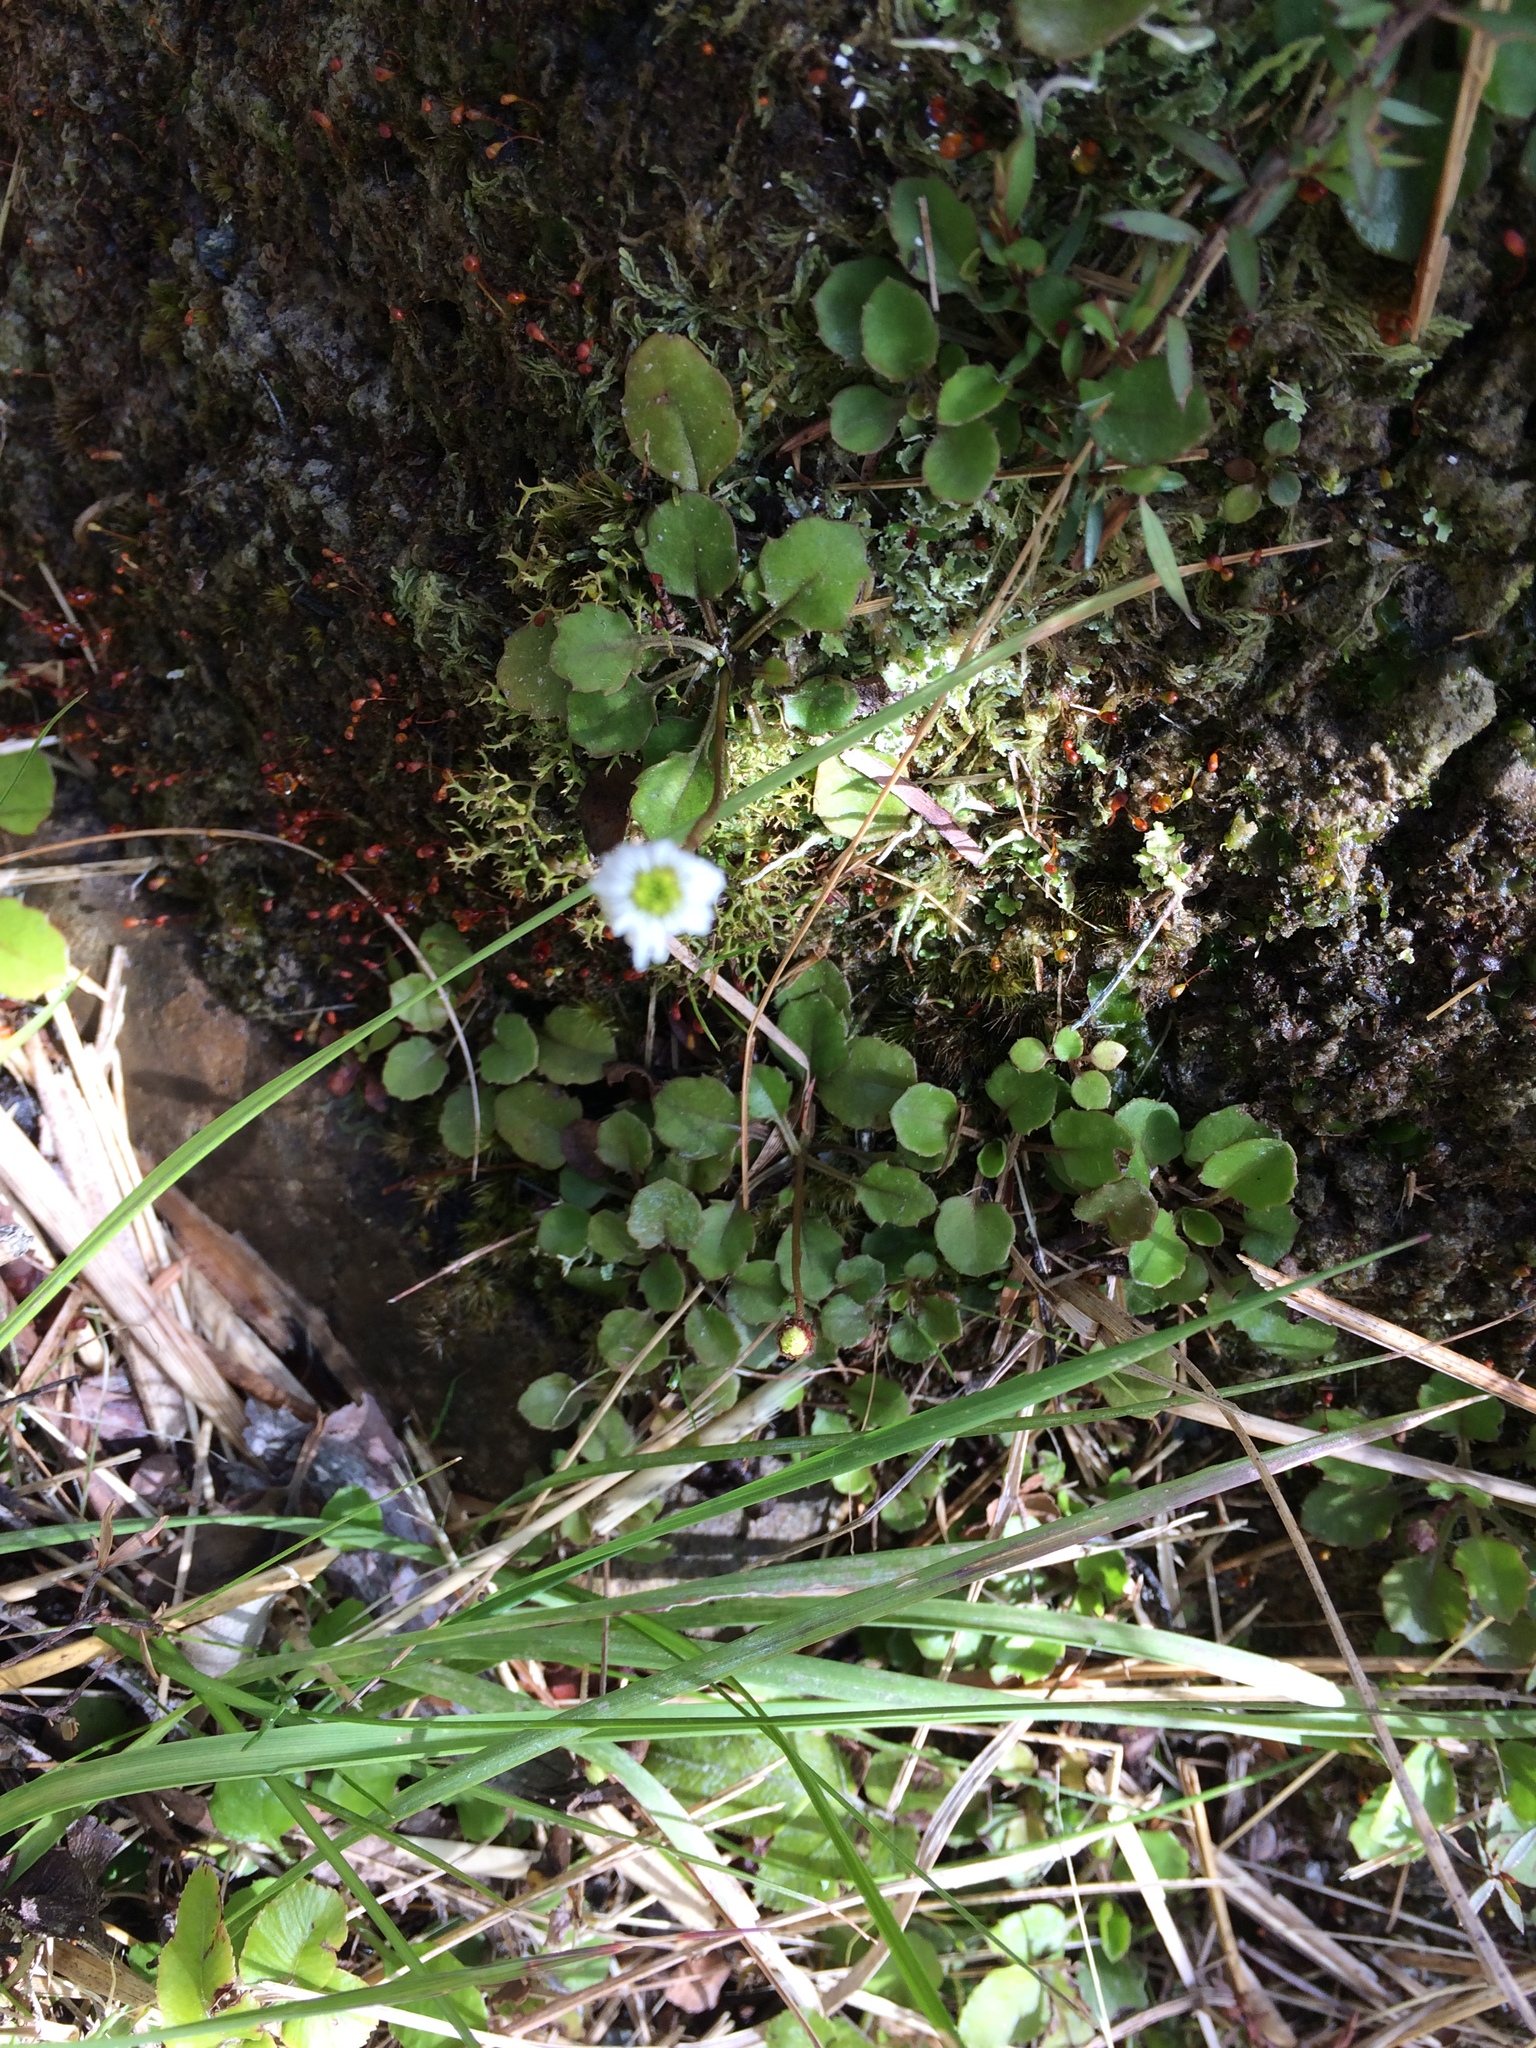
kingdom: Plantae
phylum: Tracheophyta
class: Magnoliopsida
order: Asterales
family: Asteraceae
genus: Lagenophora
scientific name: Lagenophora pumila
